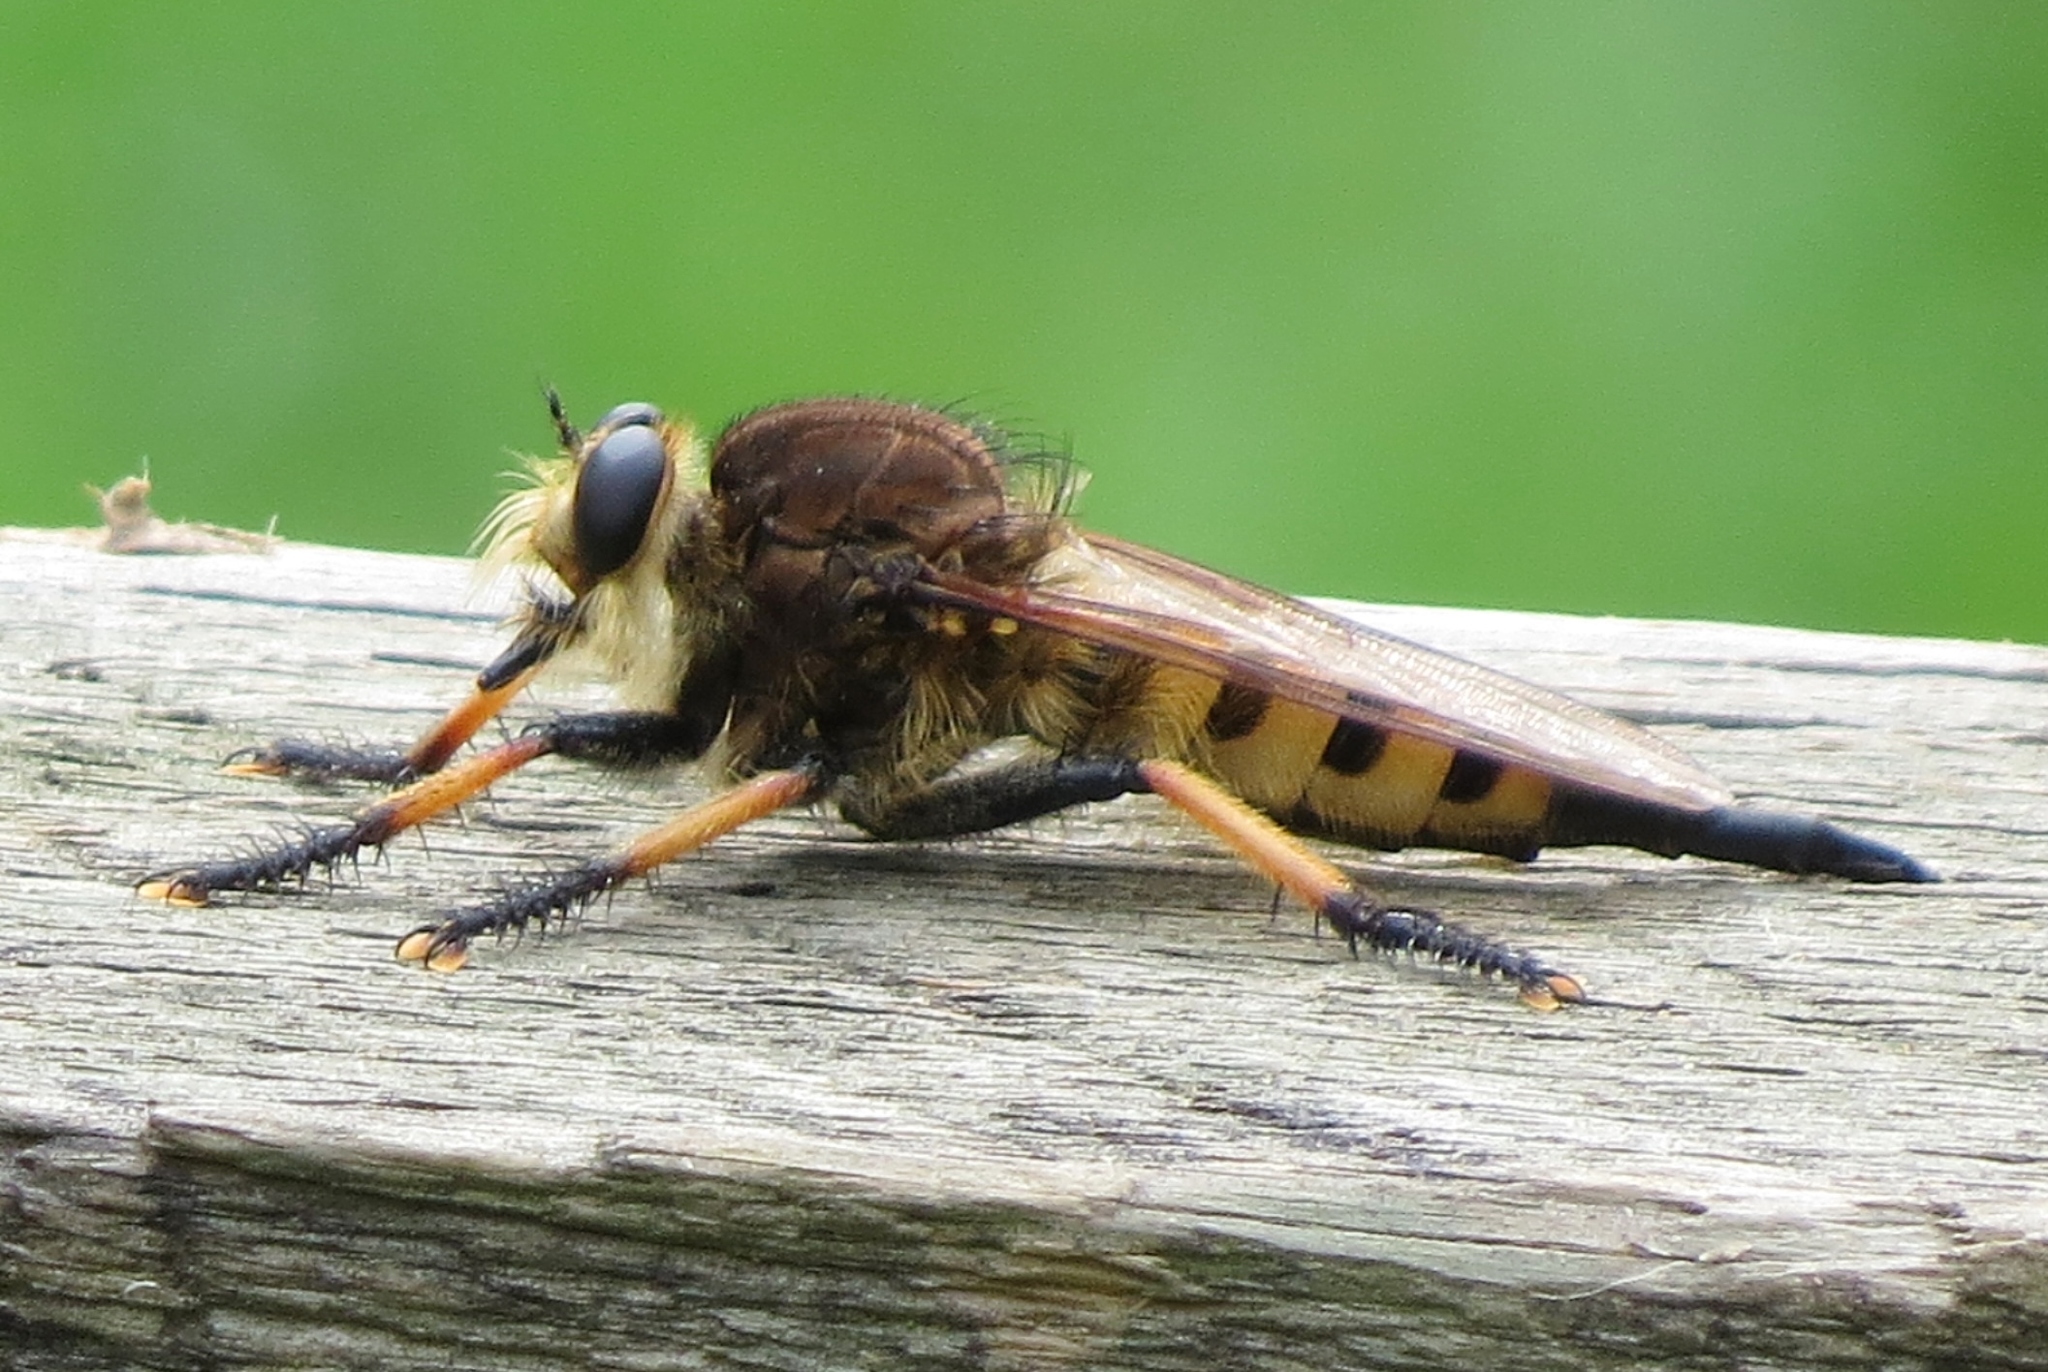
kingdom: Animalia
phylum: Arthropoda
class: Insecta
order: Diptera
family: Asilidae
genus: Promachus
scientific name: Promachus rufipes
